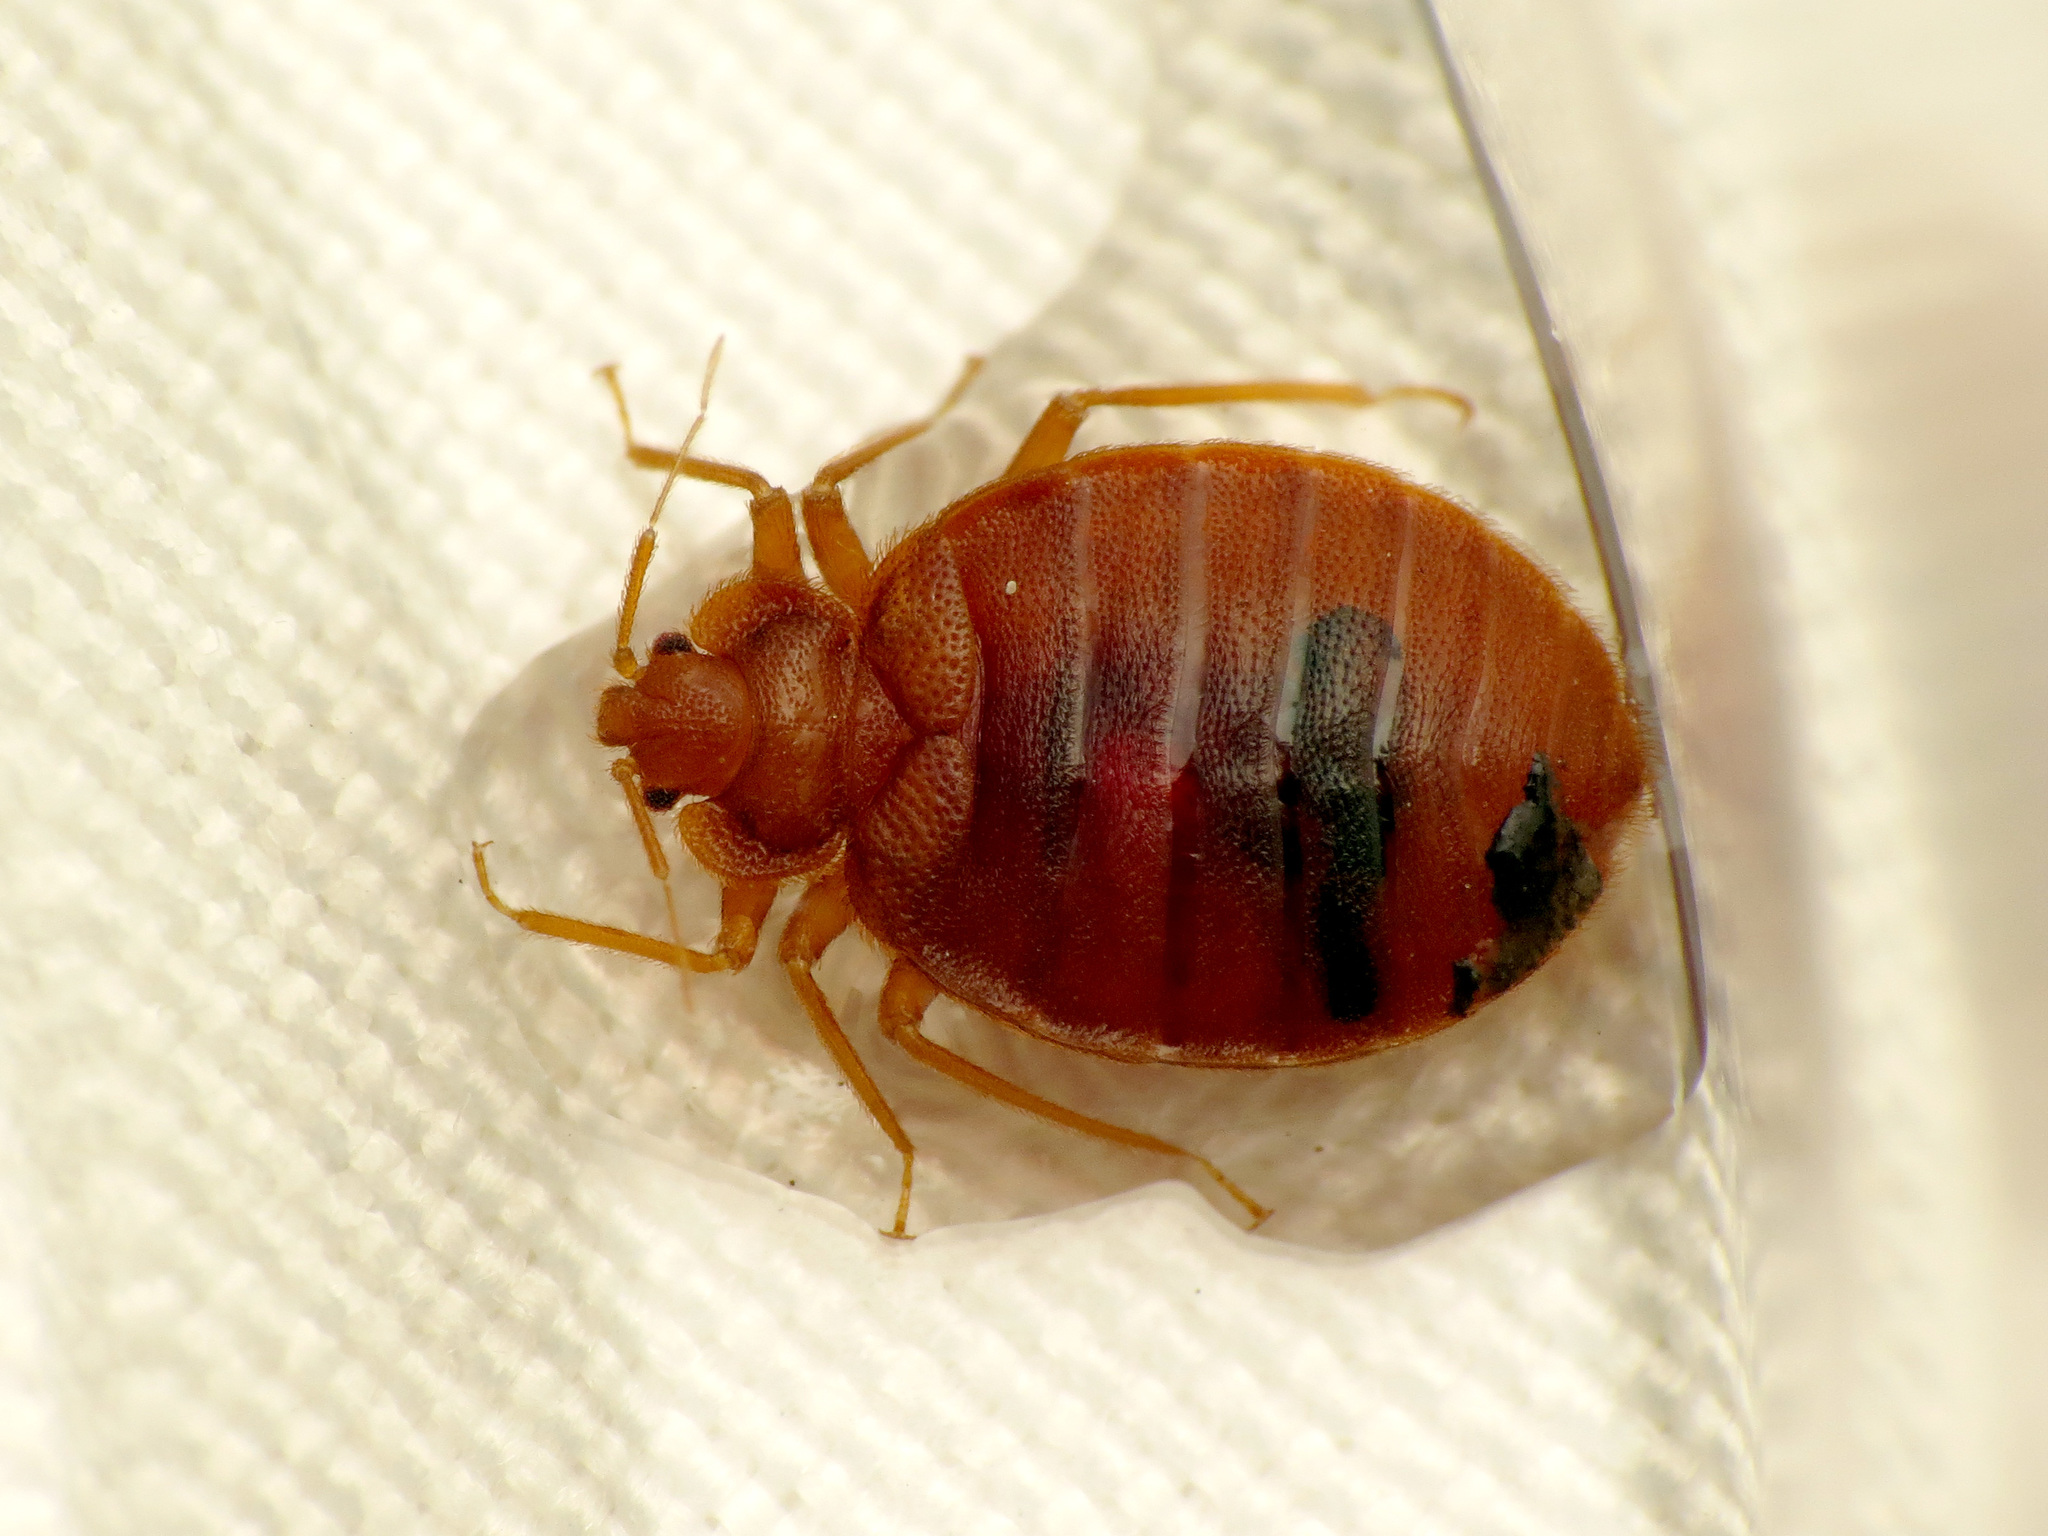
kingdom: Animalia
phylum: Arthropoda
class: Insecta
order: Hemiptera
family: Cimicidae
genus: Cimex
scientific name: Cimex lectularius
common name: Bed bug
